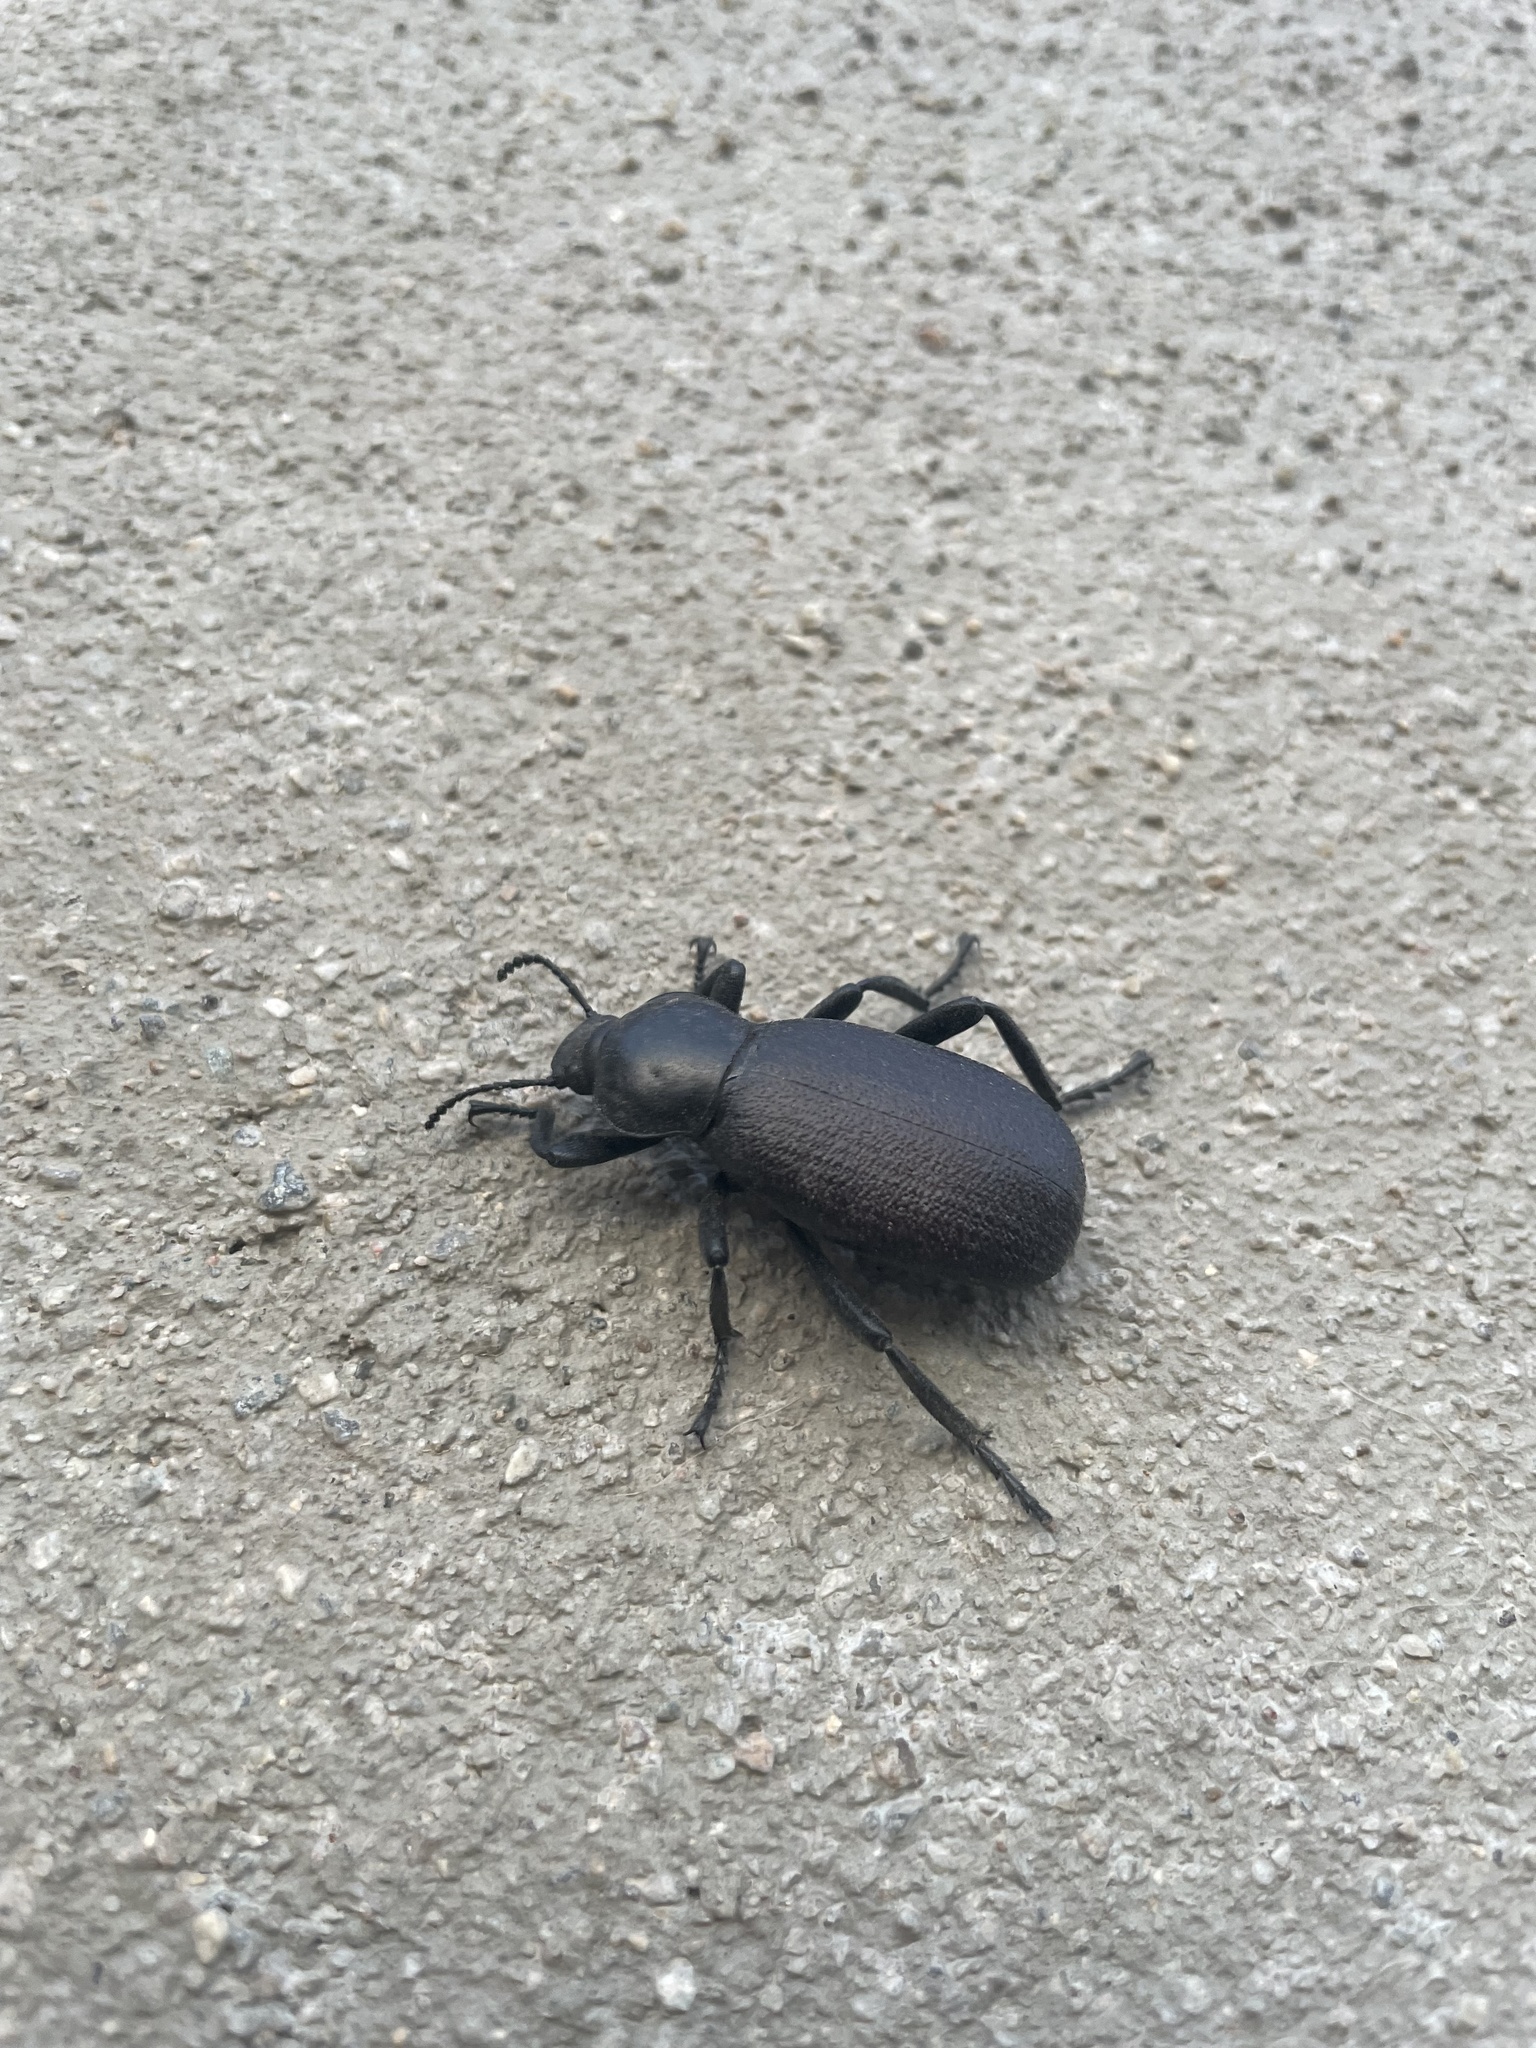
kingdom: Animalia
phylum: Arthropoda
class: Insecta
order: Coleoptera
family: Tenebrionidae
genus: Eleodes
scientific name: Eleodes obscura
